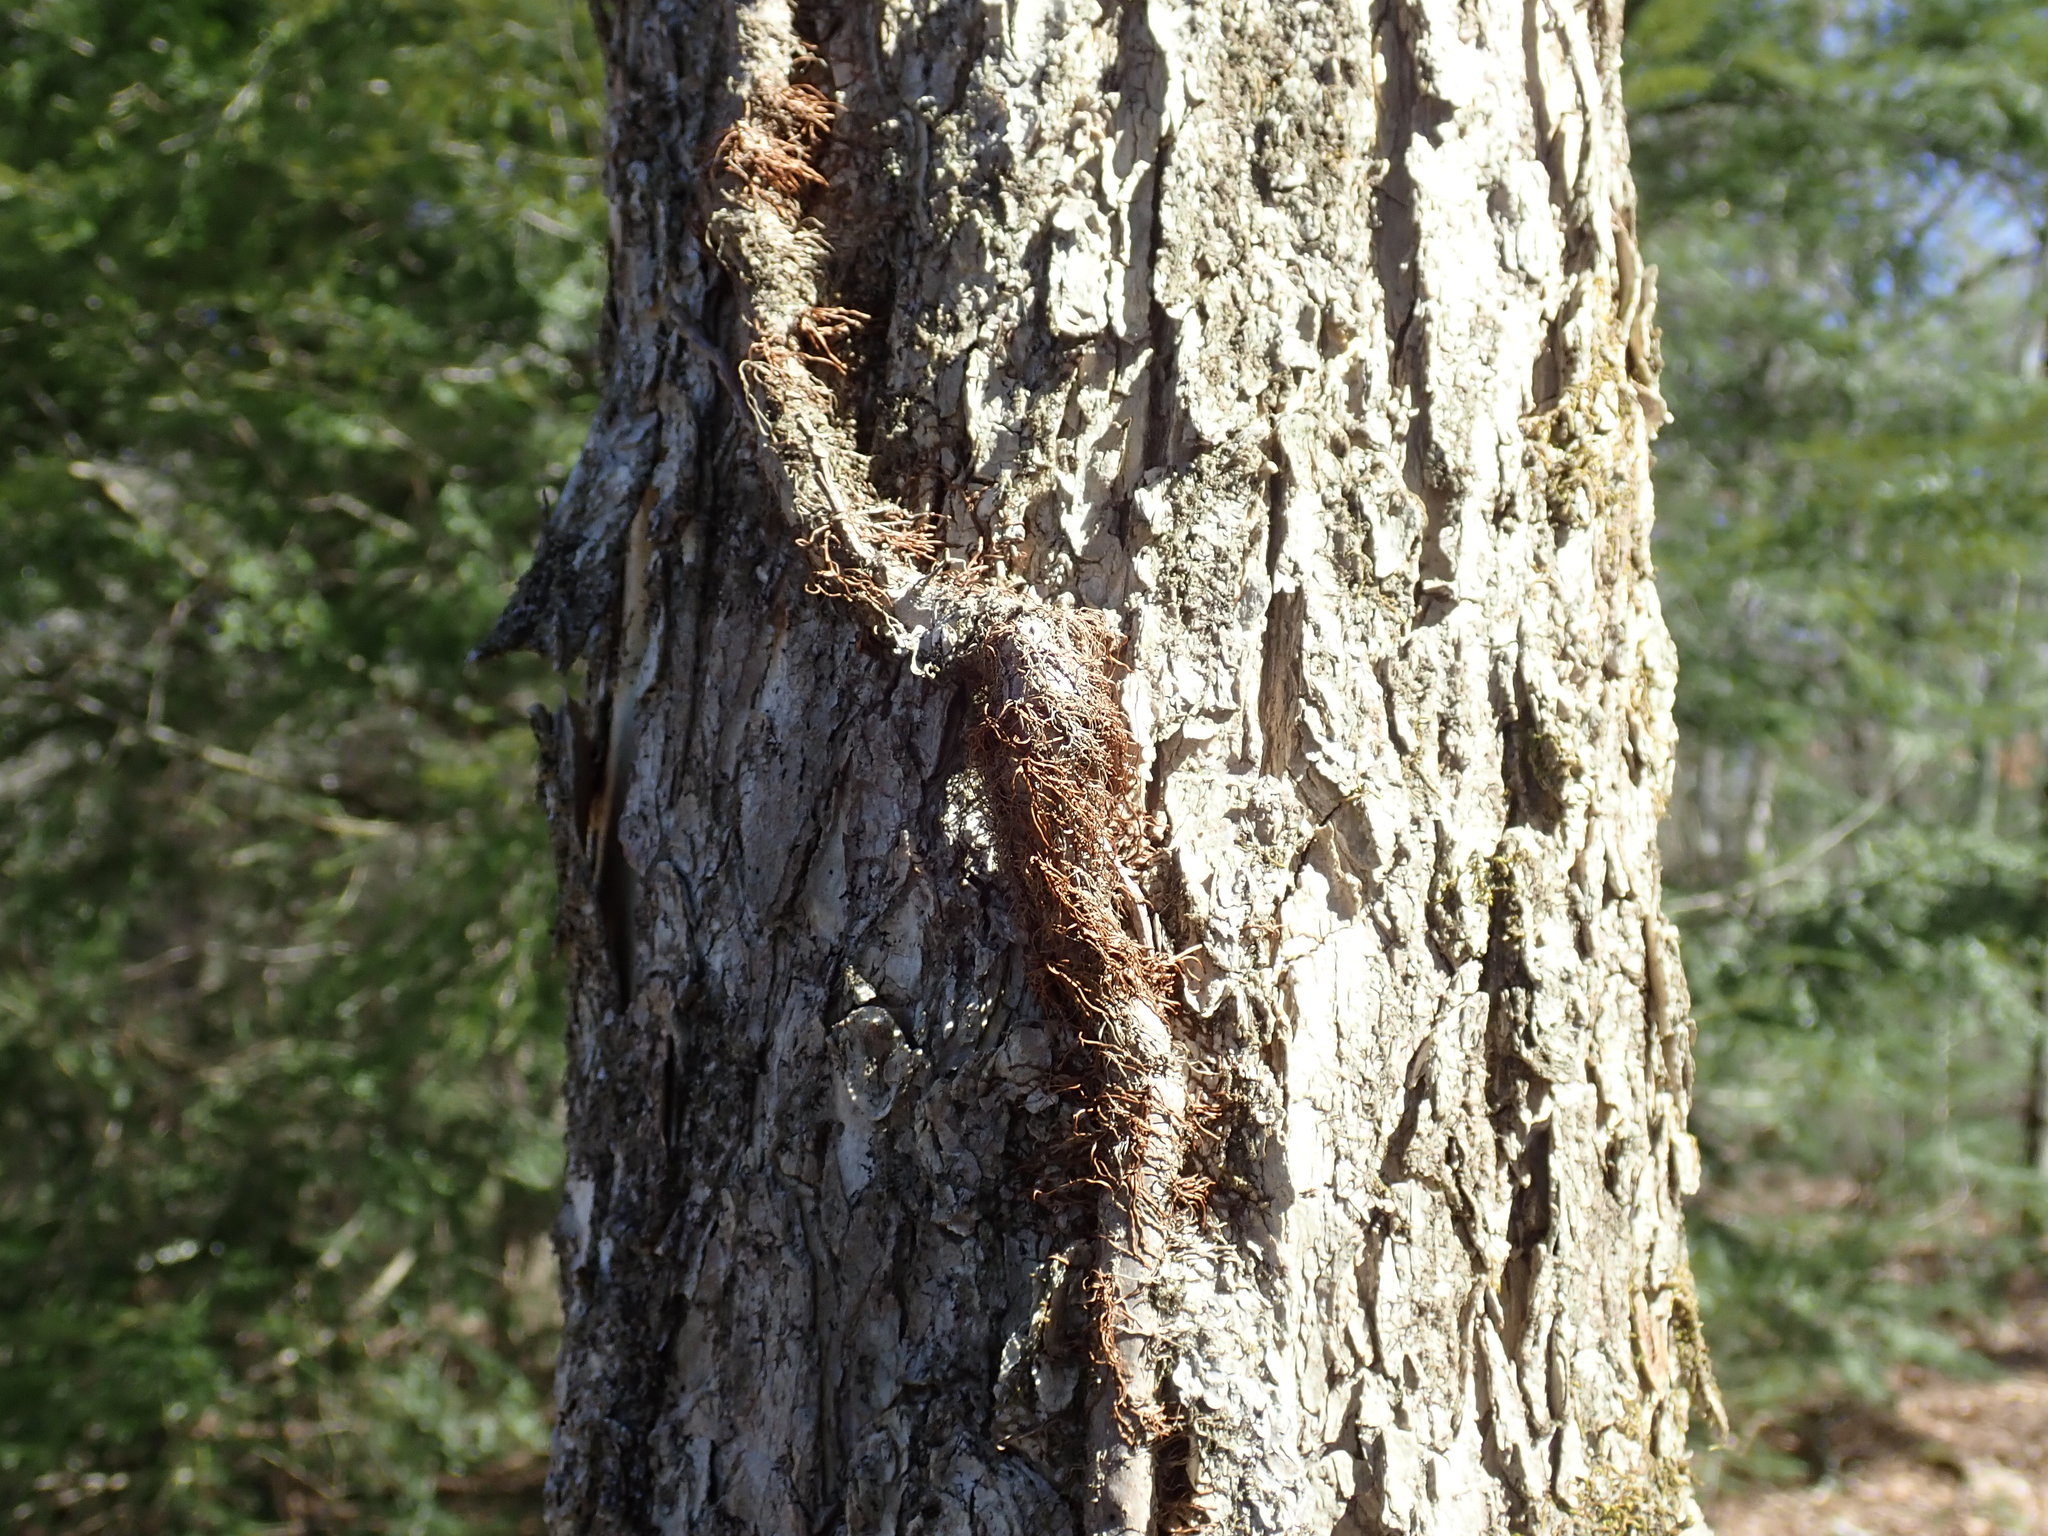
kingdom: Plantae
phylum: Tracheophyta
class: Magnoliopsida
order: Sapindales
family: Anacardiaceae
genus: Toxicodendron
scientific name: Toxicodendron radicans
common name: Poison ivy
